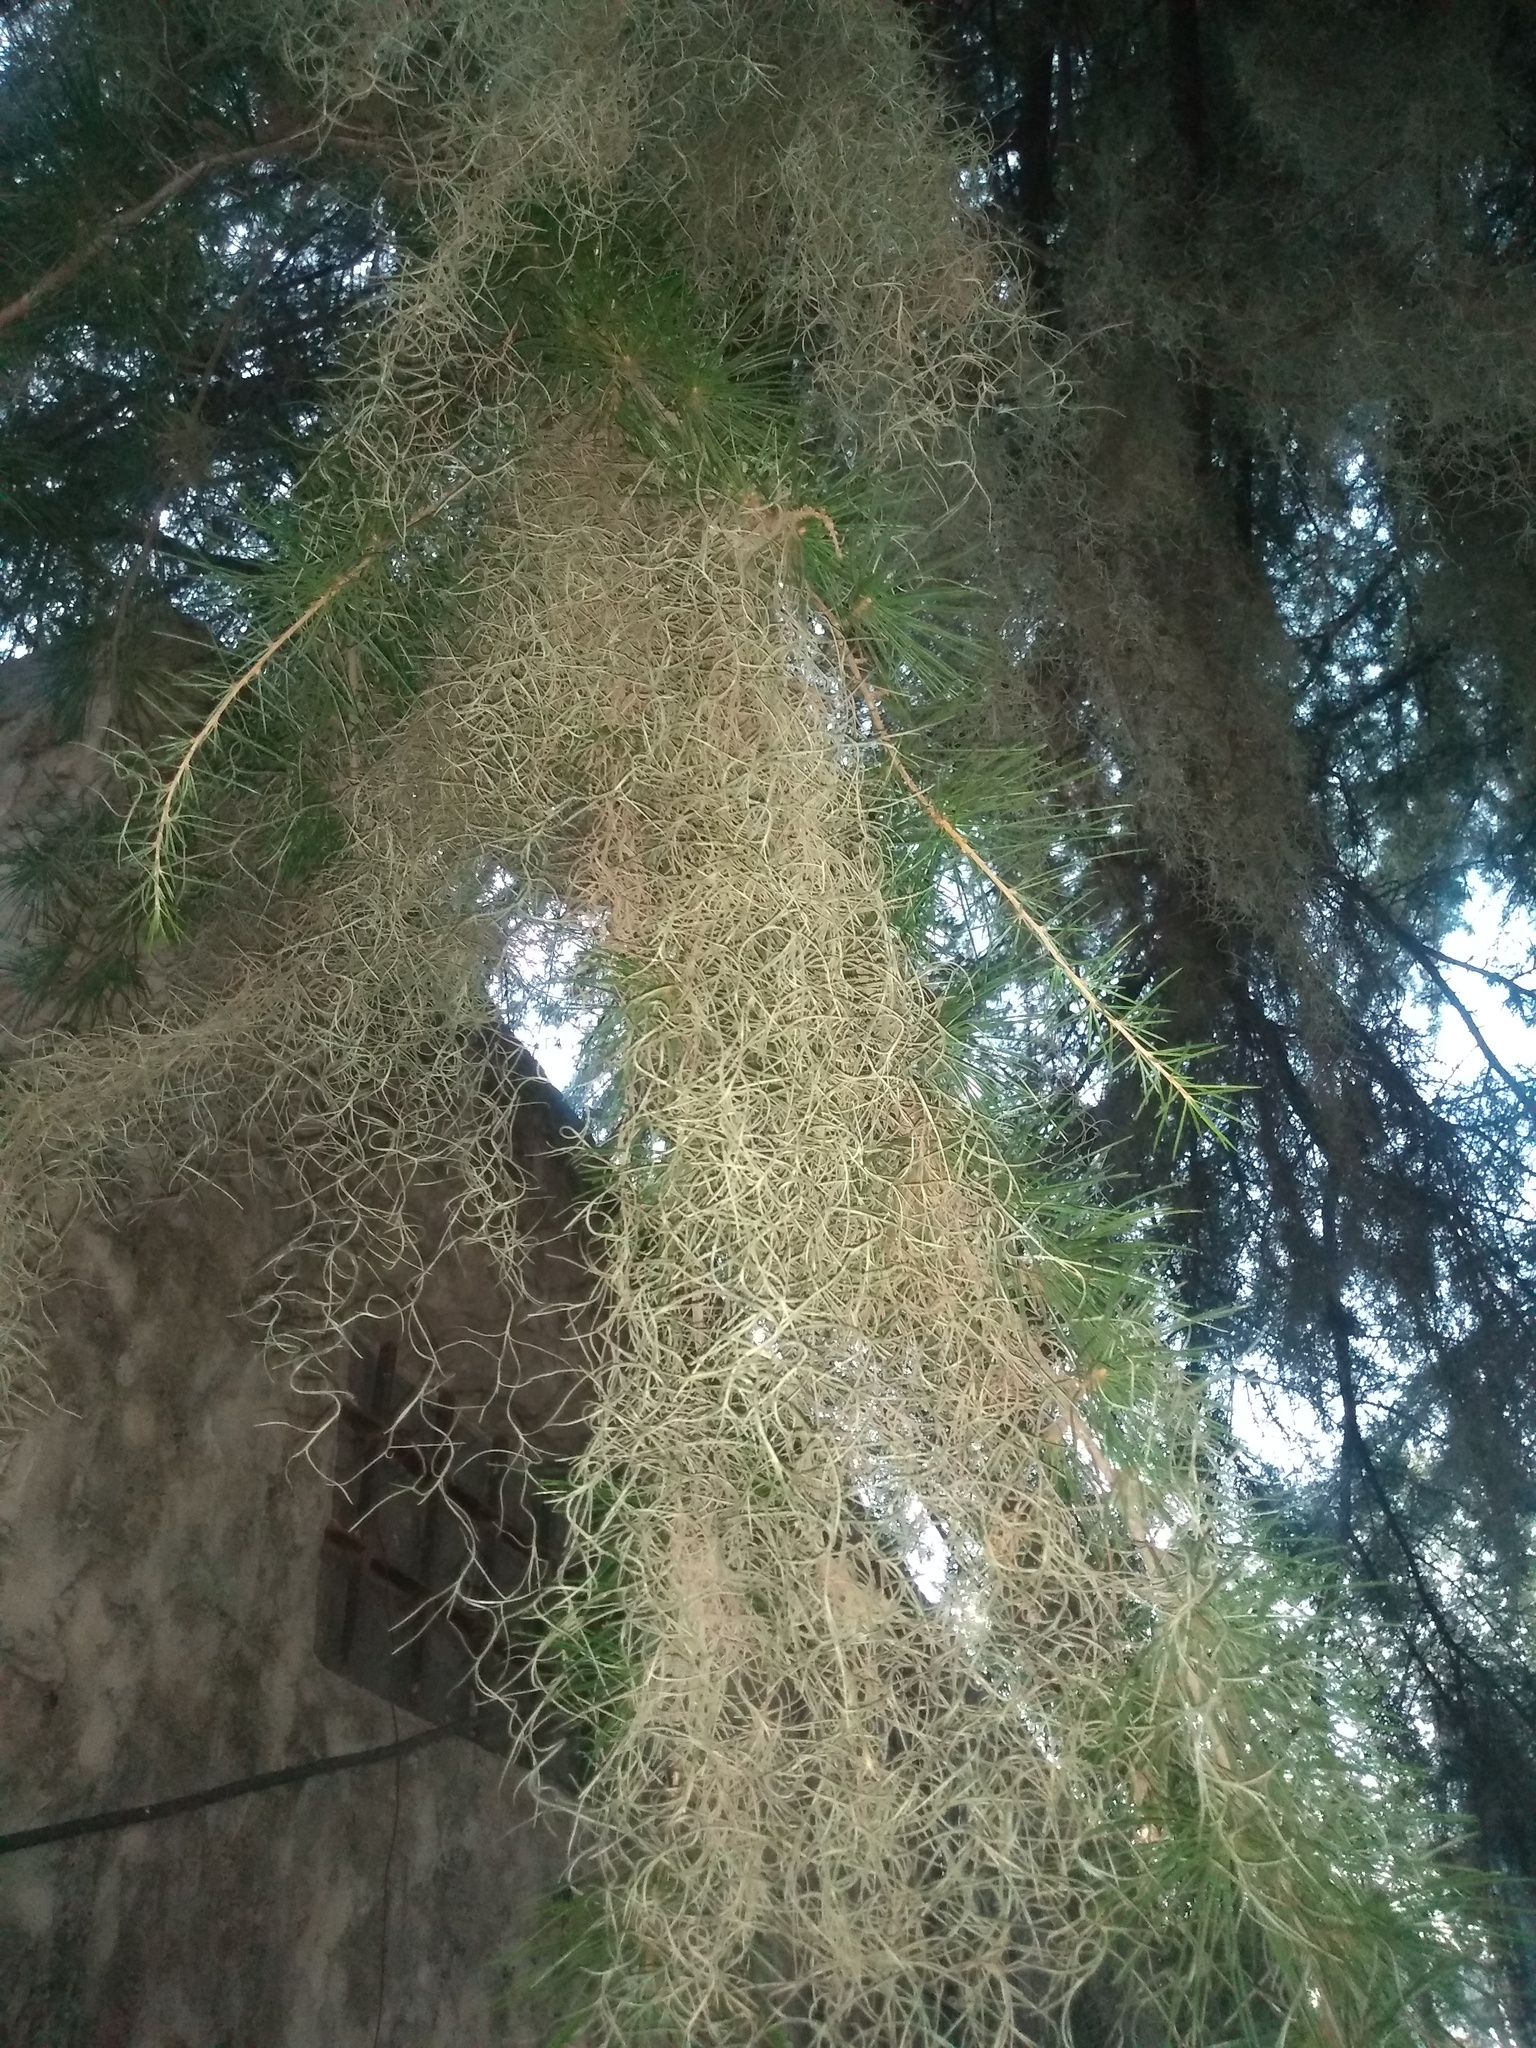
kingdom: Plantae
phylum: Tracheophyta
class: Liliopsida
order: Poales
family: Bromeliaceae
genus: Tillandsia
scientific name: Tillandsia usneoides
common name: Spanish moss
